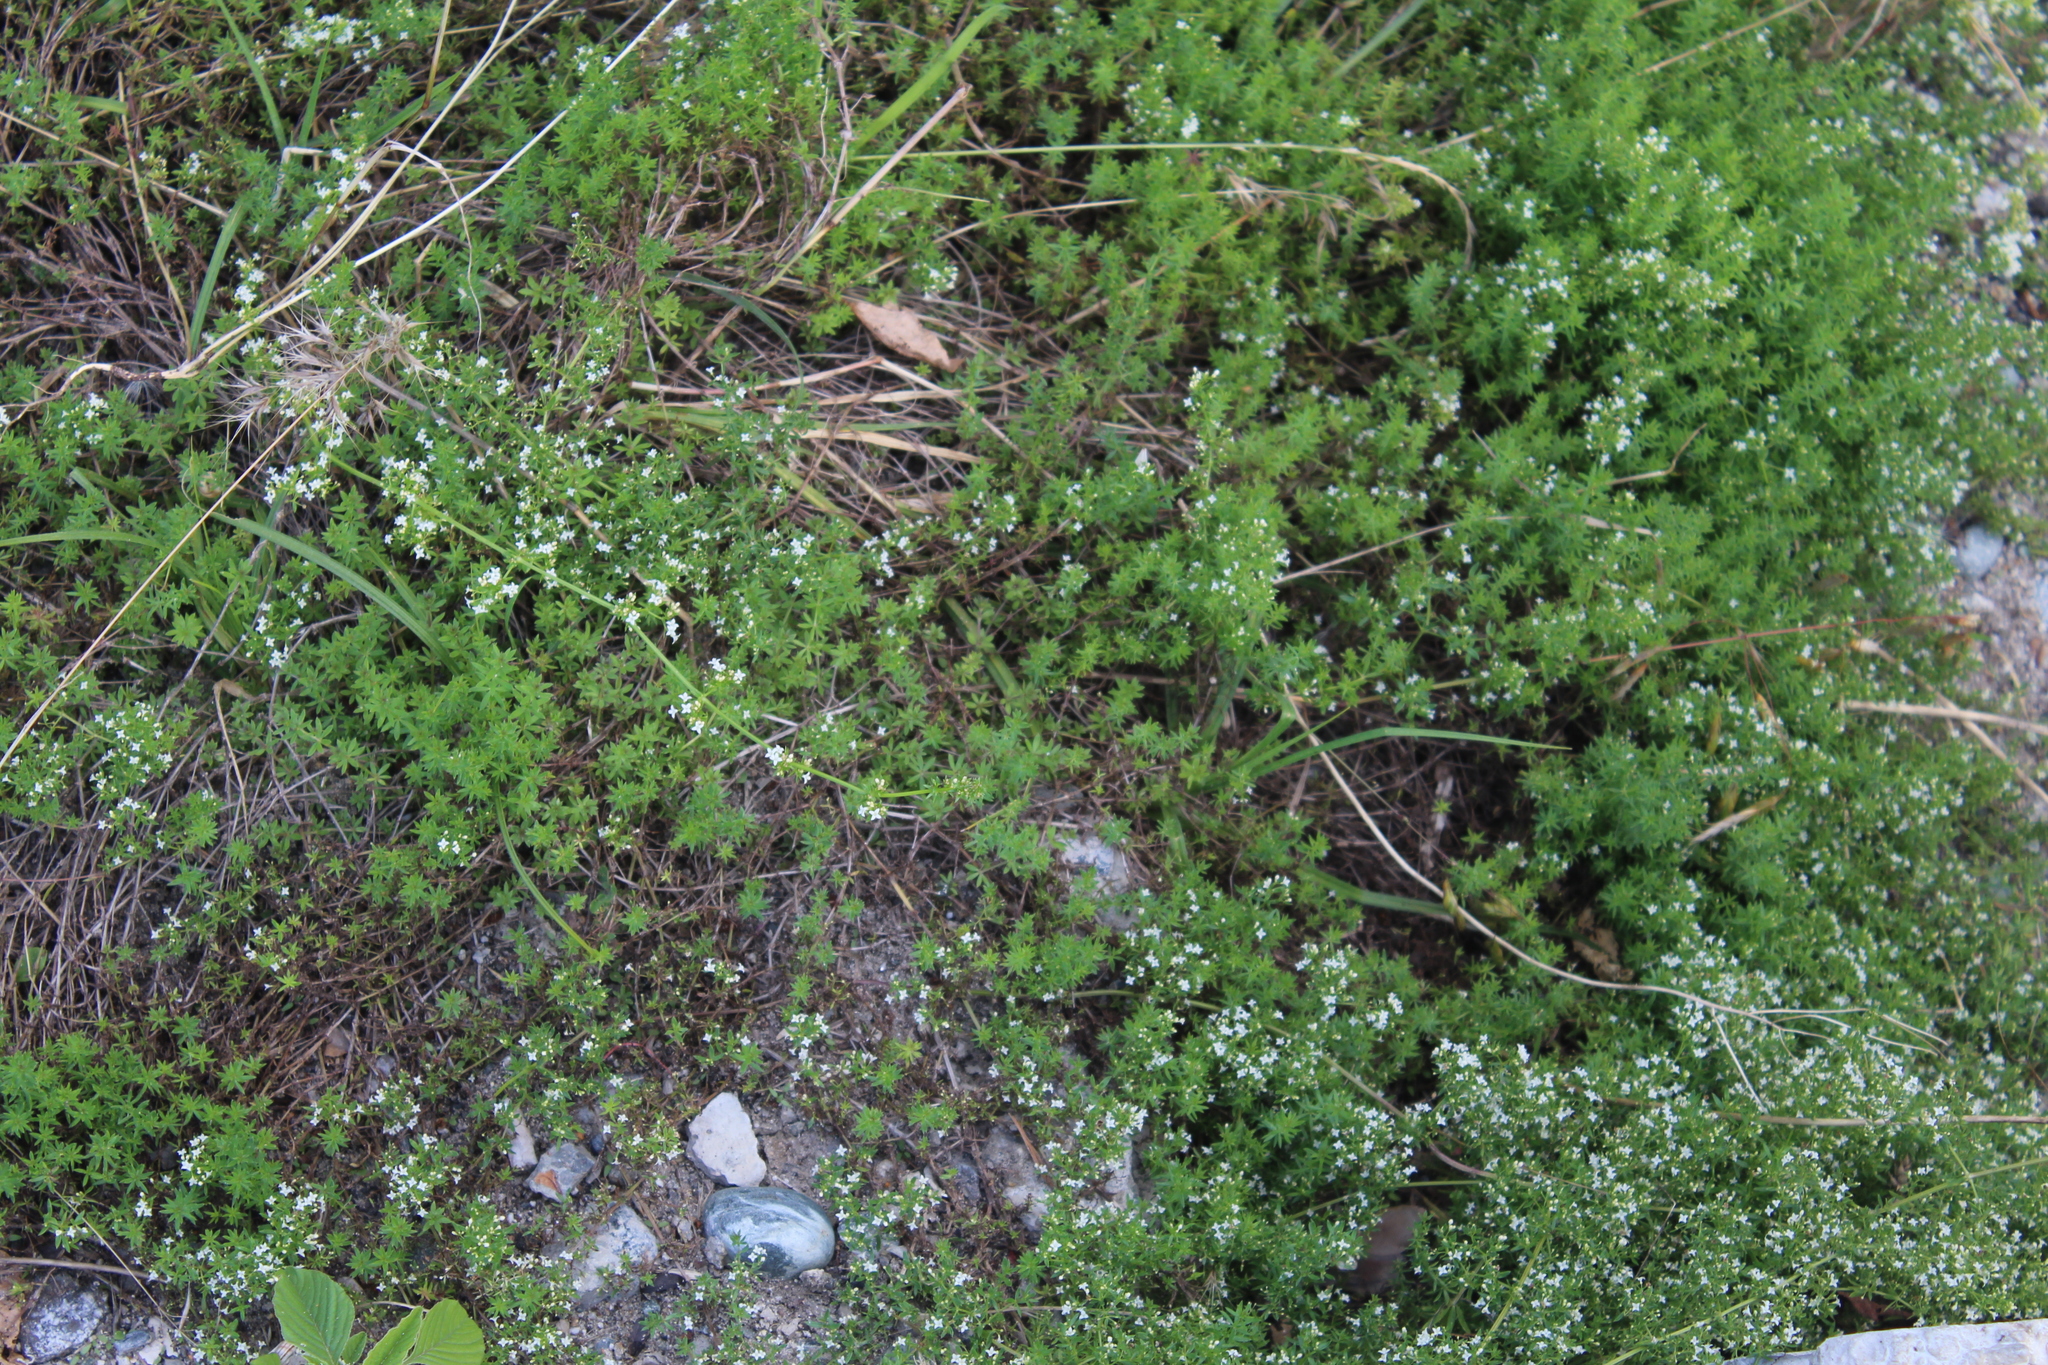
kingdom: Plantae
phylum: Tracheophyta
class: Magnoliopsida
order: Gentianales
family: Rubiaceae
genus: Galium
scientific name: Galium humifusum
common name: Spreading bedstraw
